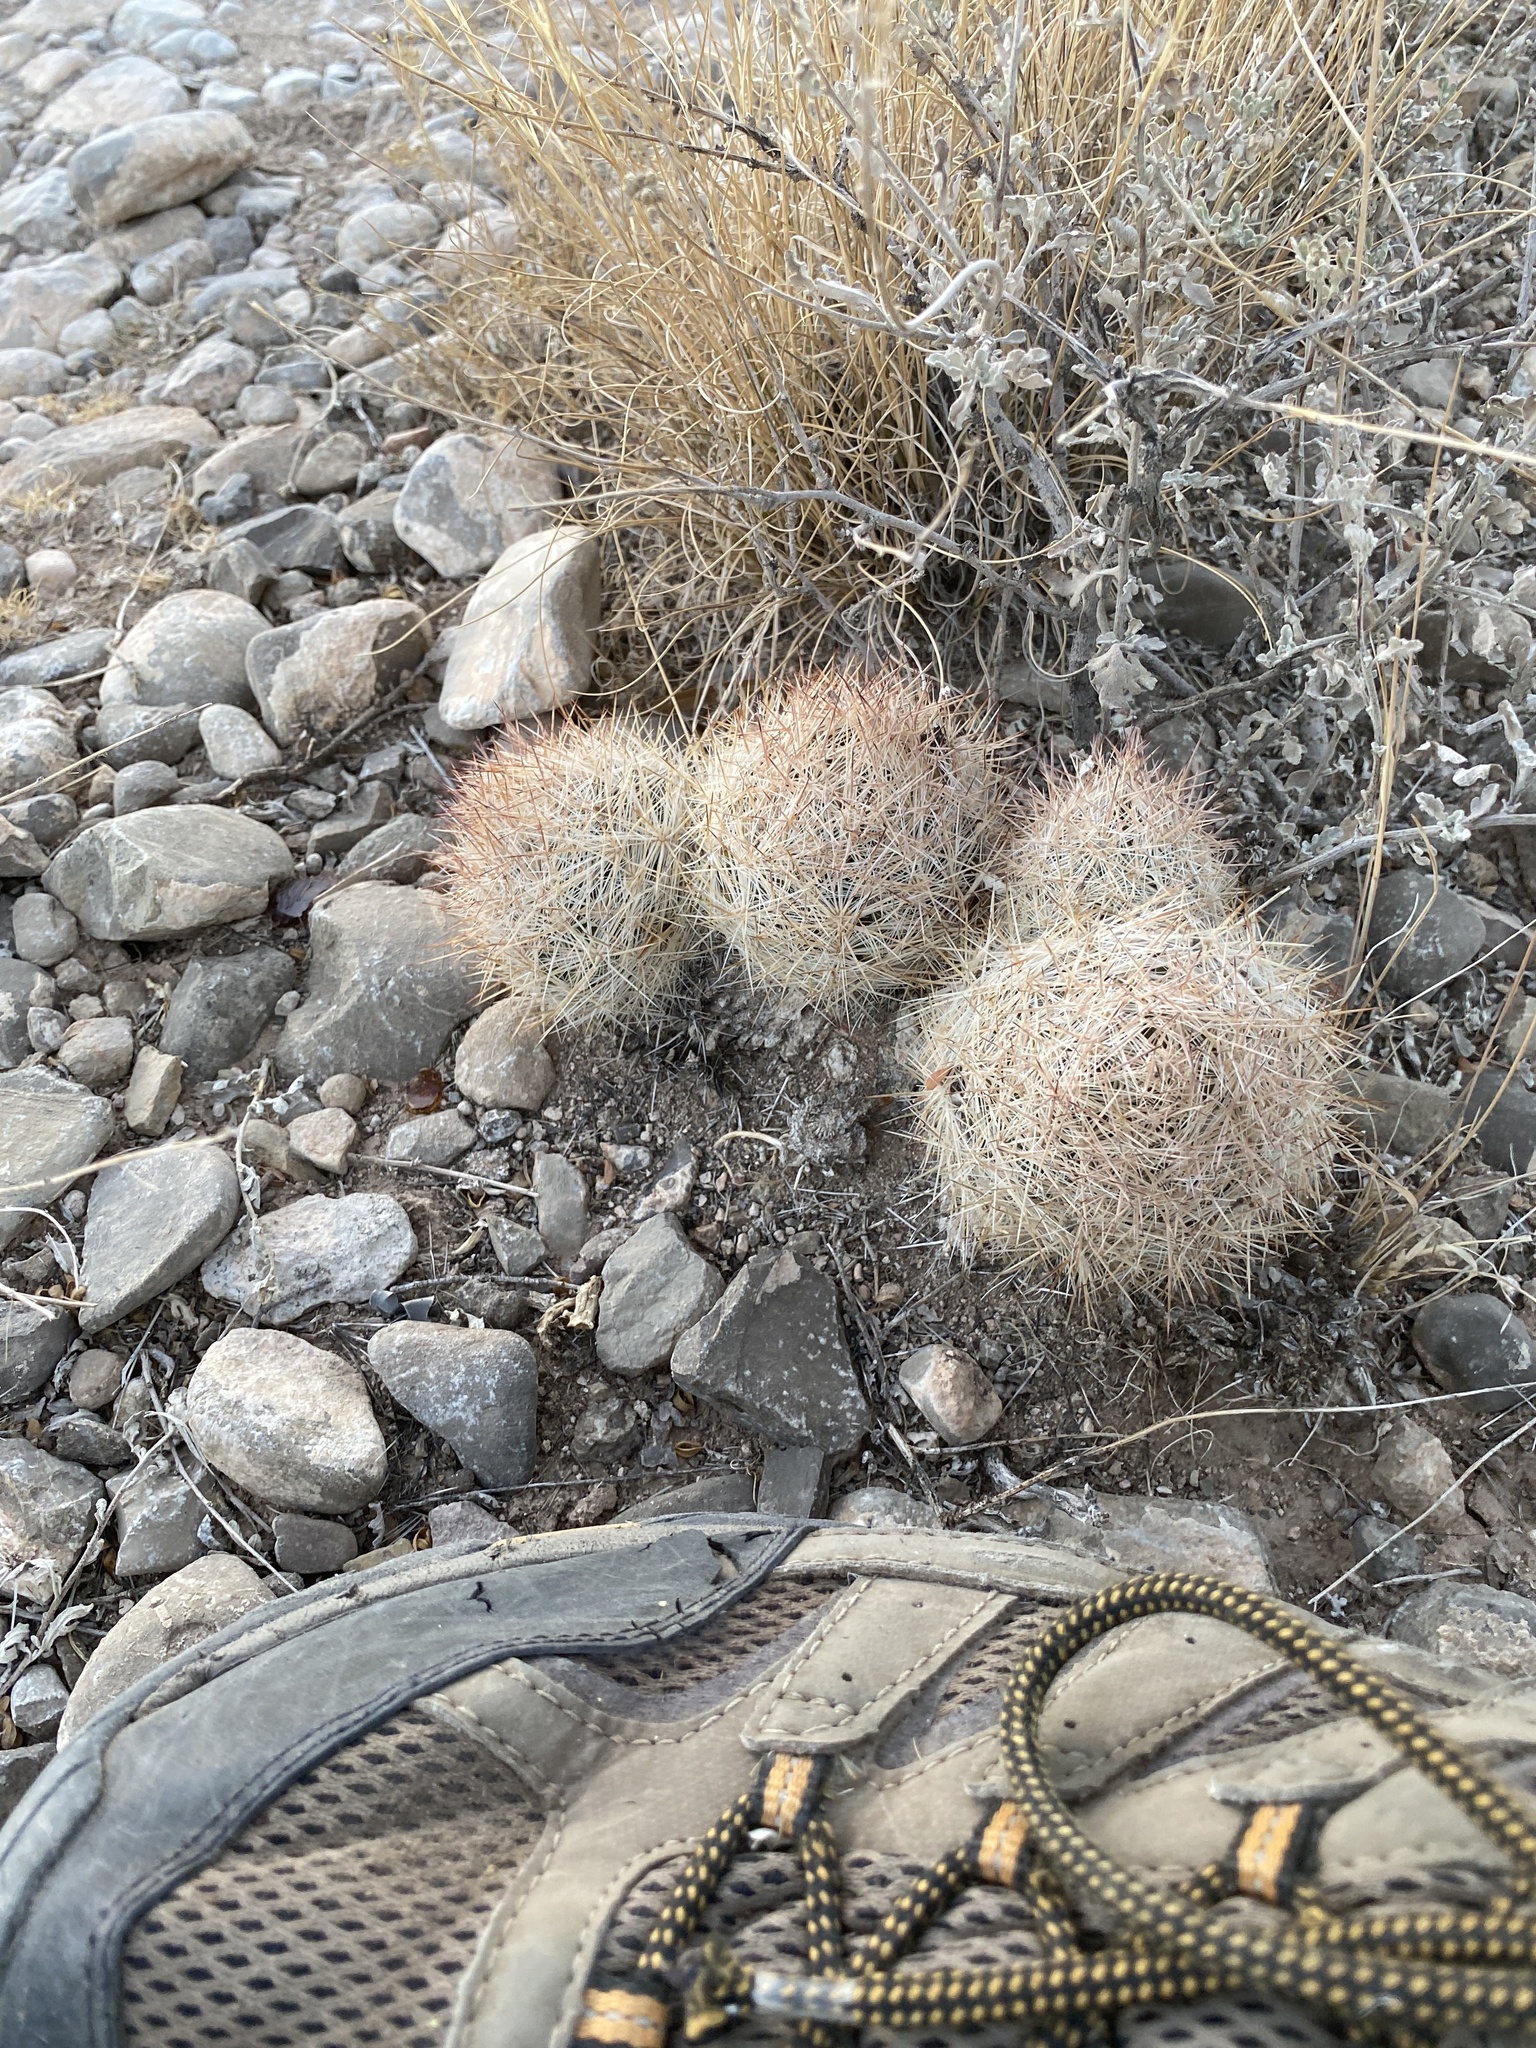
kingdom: Plantae
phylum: Tracheophyta
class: Magnoliopsida
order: Caryophyllales
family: Cactaceae
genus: Pelecyphora
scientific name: Pelecyphora sneedii
